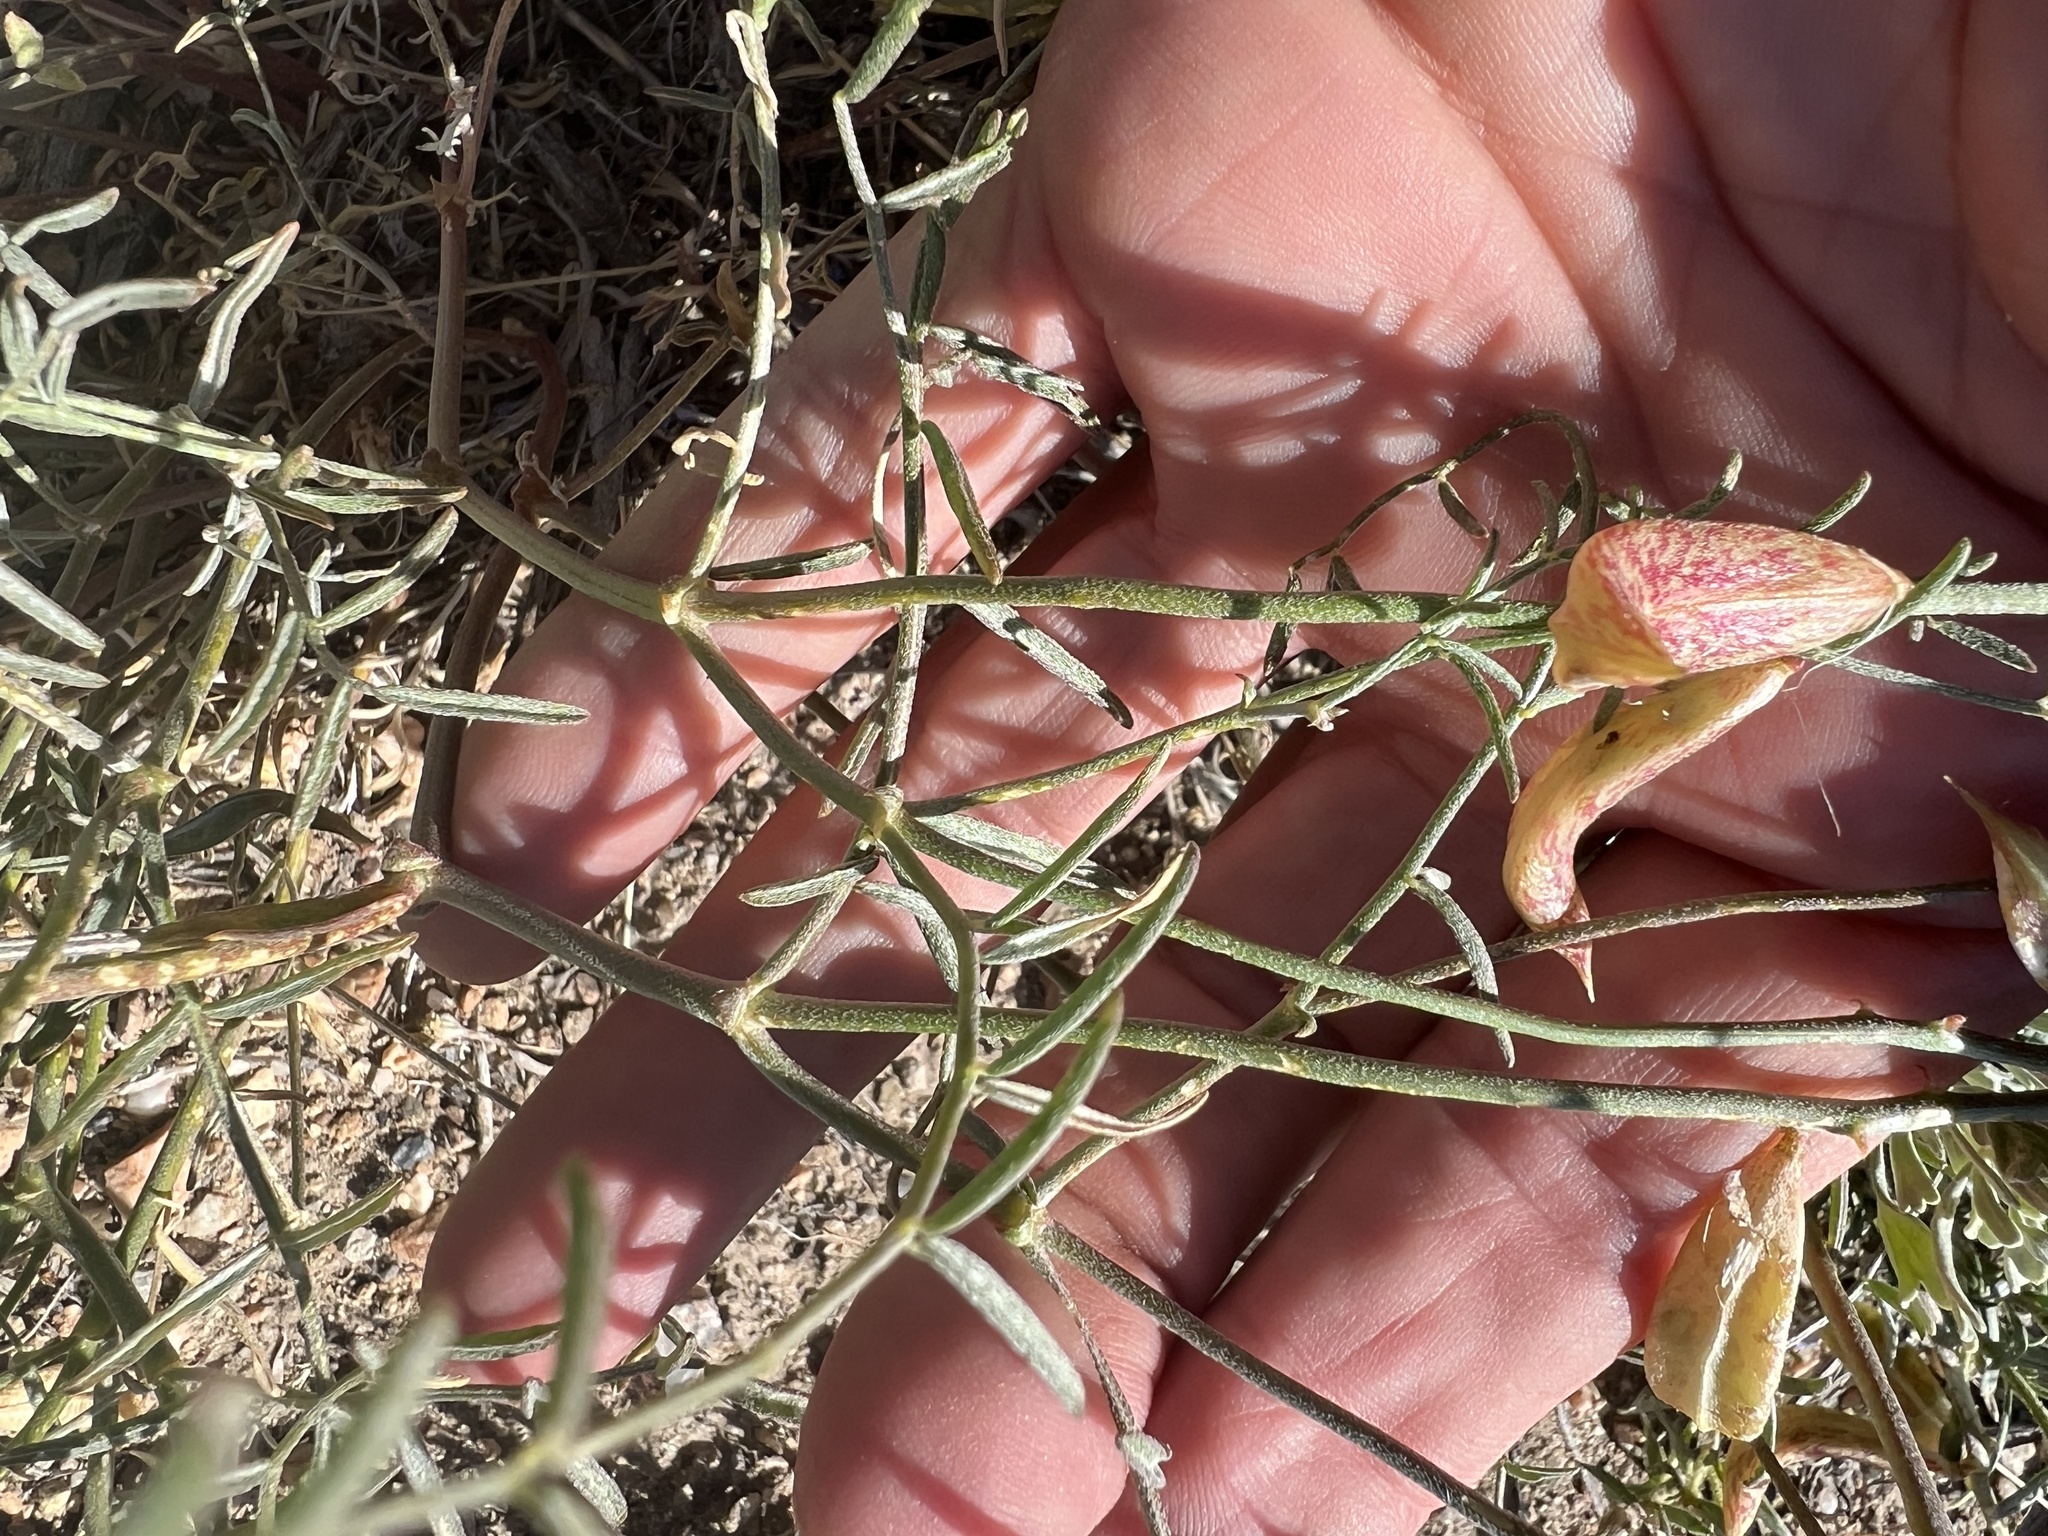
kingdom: Plantae
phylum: Tracheophyta
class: Magnoliopsida
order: Fabales
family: Fabaceae
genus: Astragalus
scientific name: Astragalus casei
